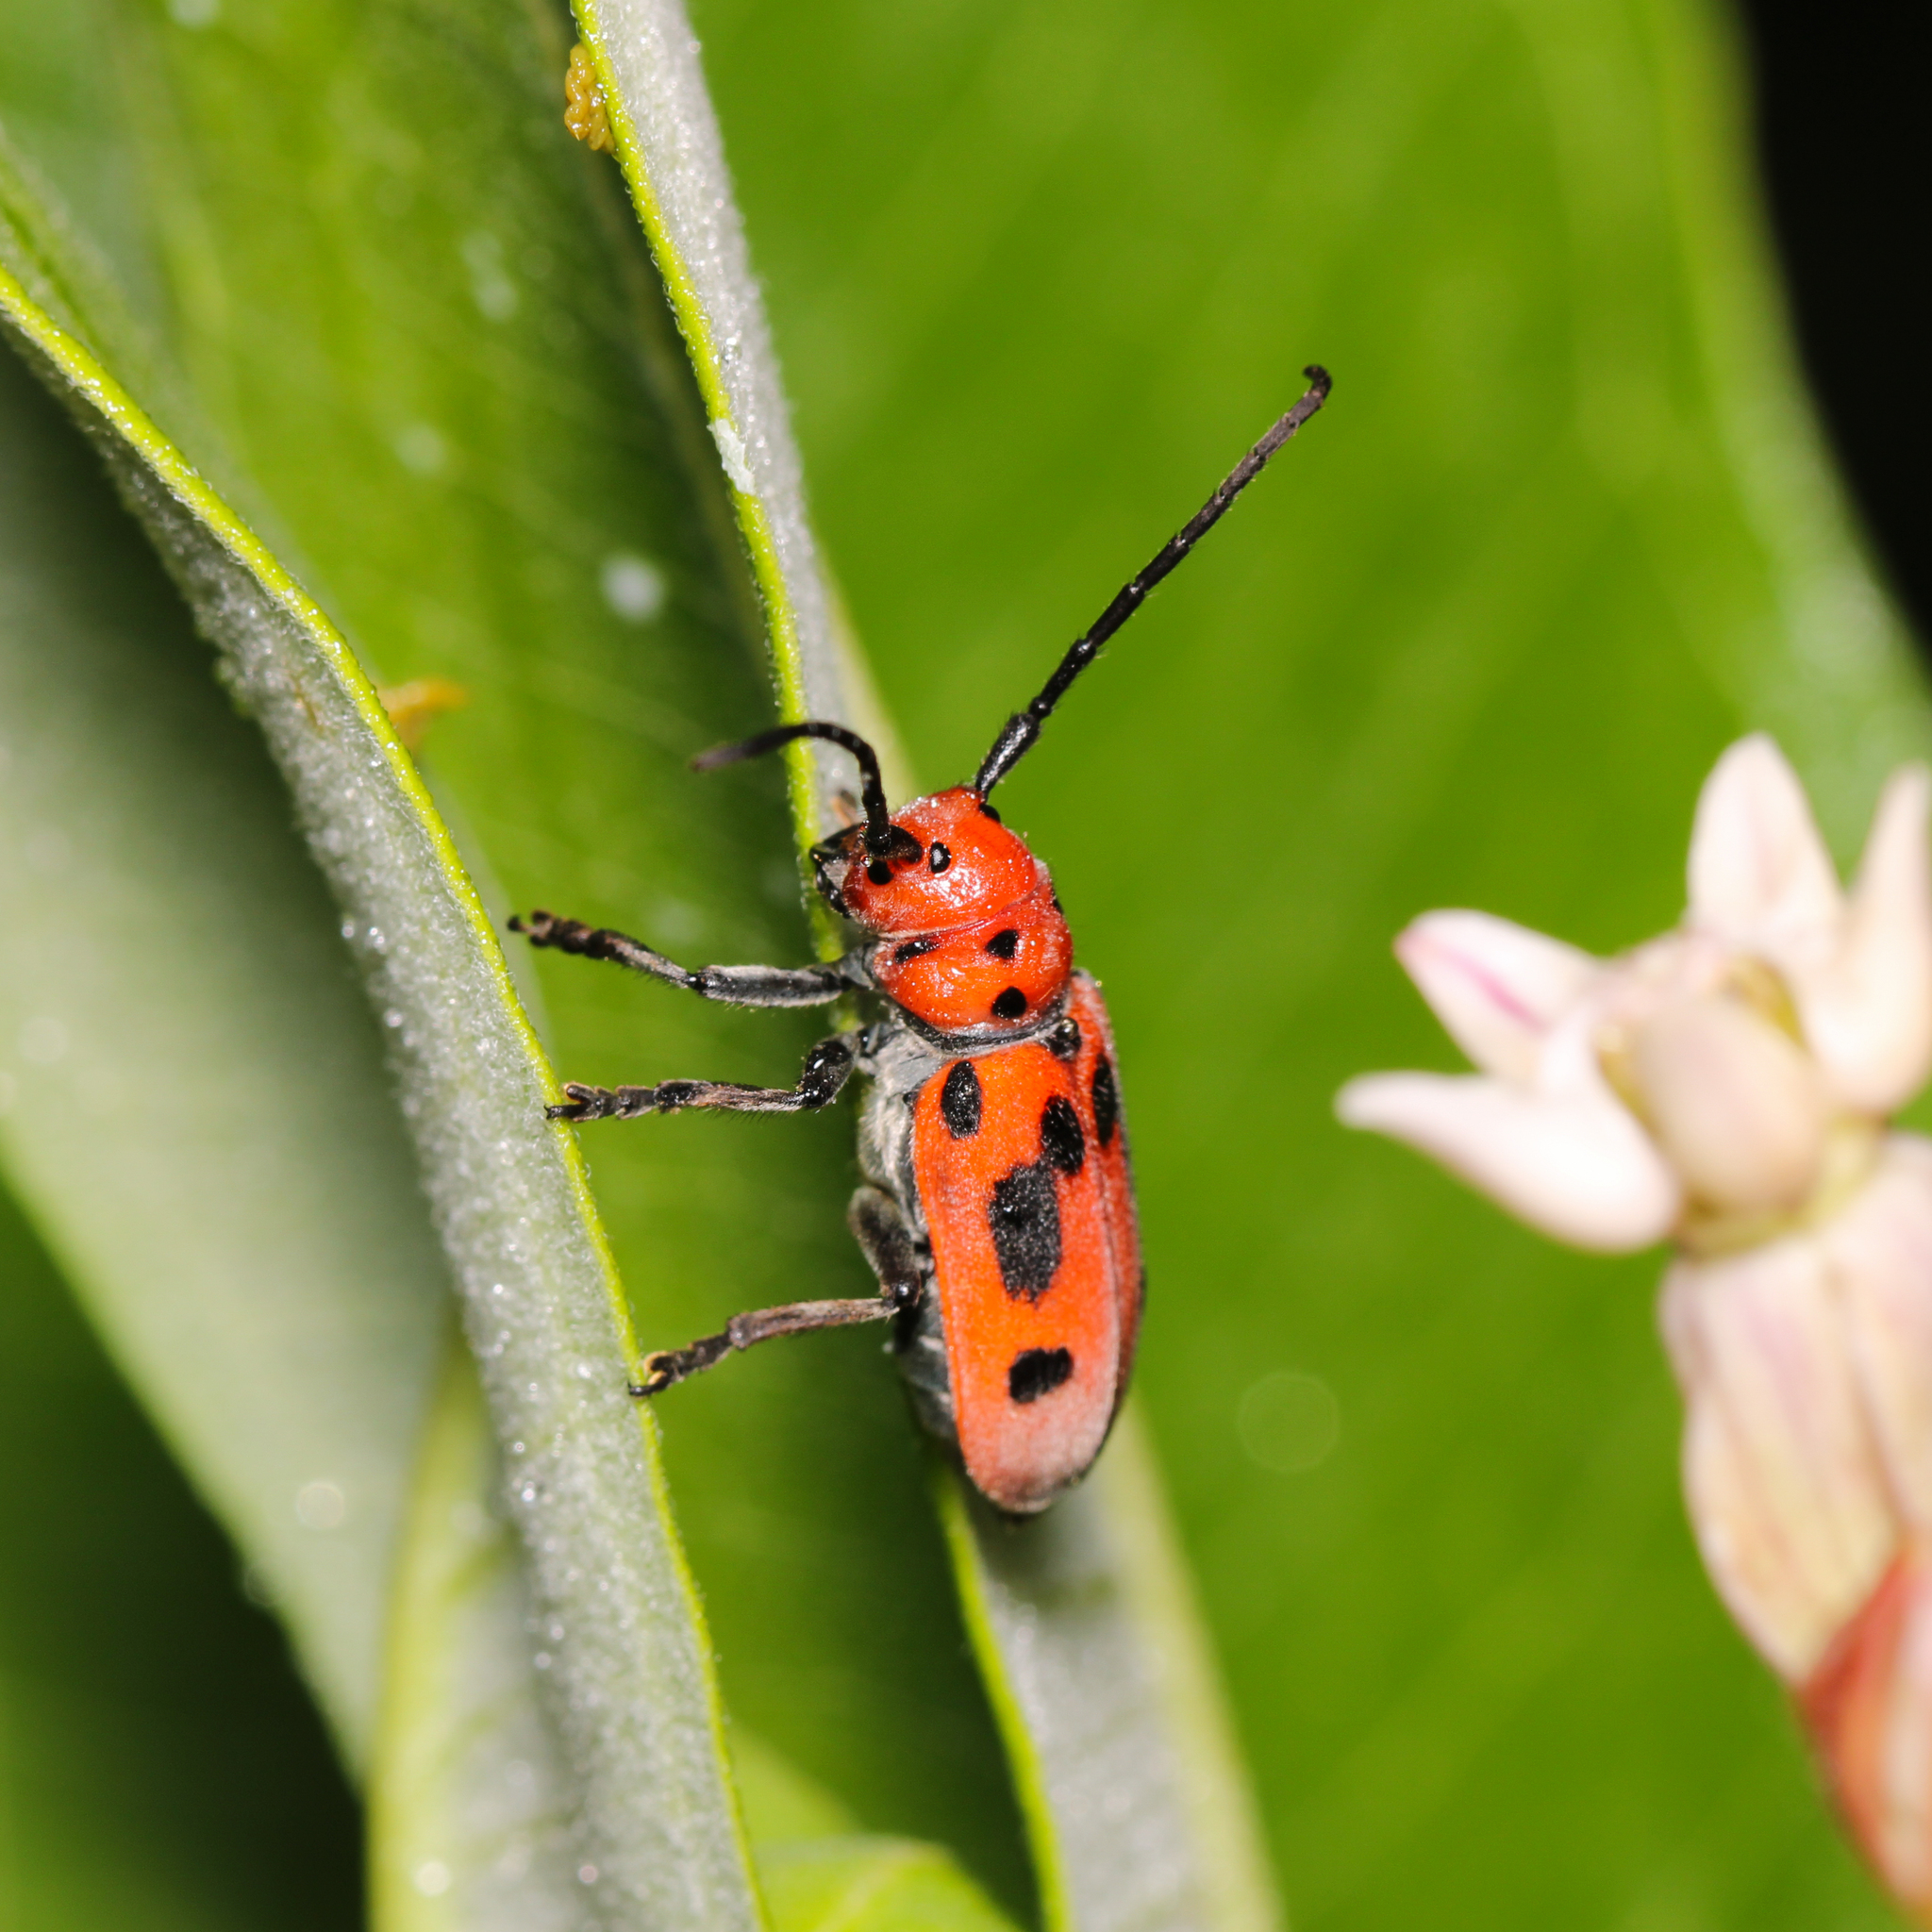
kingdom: Animalia
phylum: Arthropoda
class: Insecta
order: Coleoptera
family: Cerambycidae
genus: Tetraopes
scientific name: Tetraopes tetrophthalmus
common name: Red milkweed beetle
